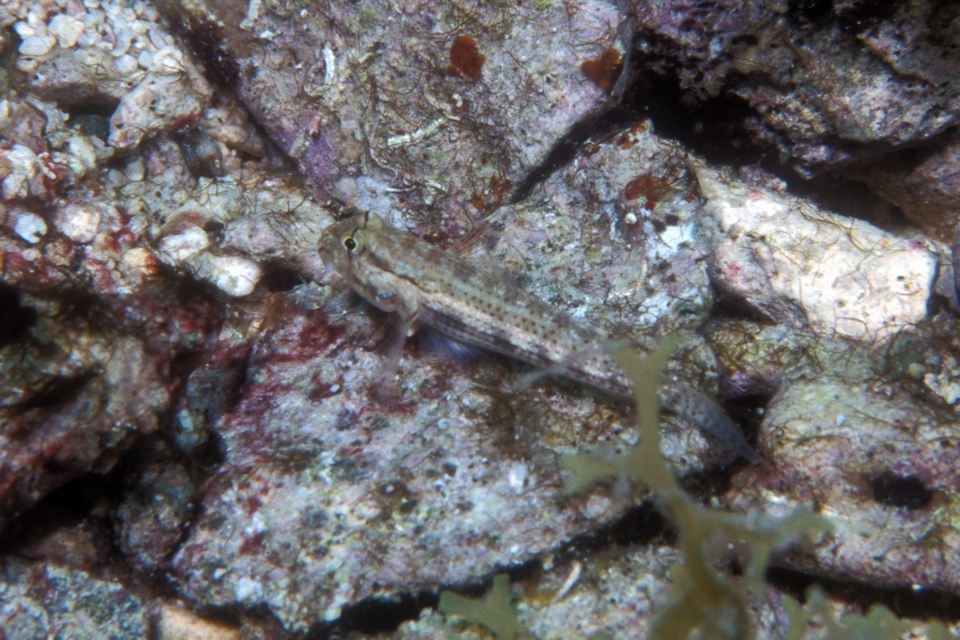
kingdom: Animalia
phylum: Chordata
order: Perciformes
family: Gobiidae
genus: Gnatholepis
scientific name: Gnatholepis thompsoni
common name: Goldspot goby
